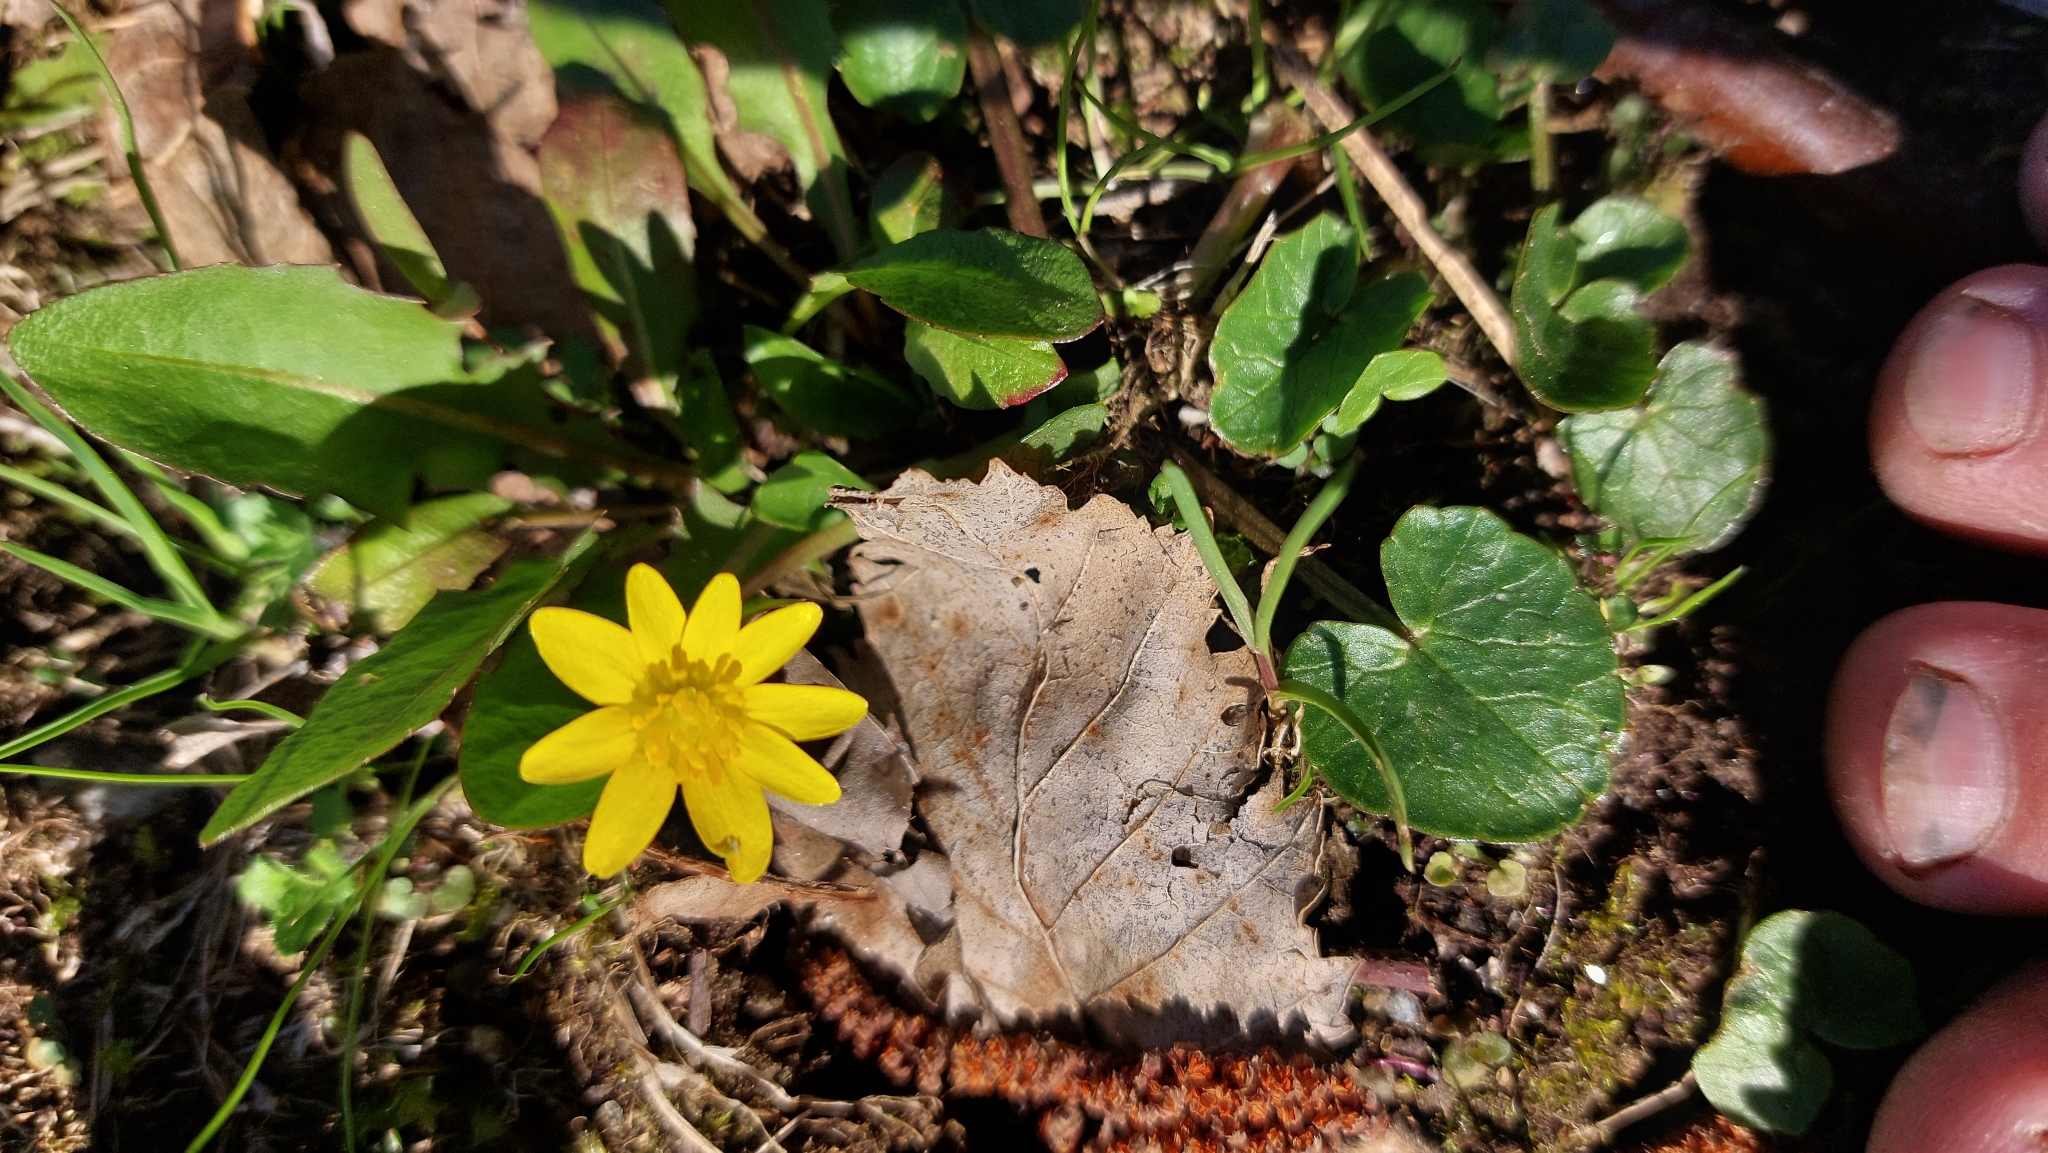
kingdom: Plantae
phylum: Tracheophyta
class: Magnoliopsida
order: Ranunculales
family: Ranunculaceae
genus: Ficaria
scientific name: Ficaria verna
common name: Lesser celandine
